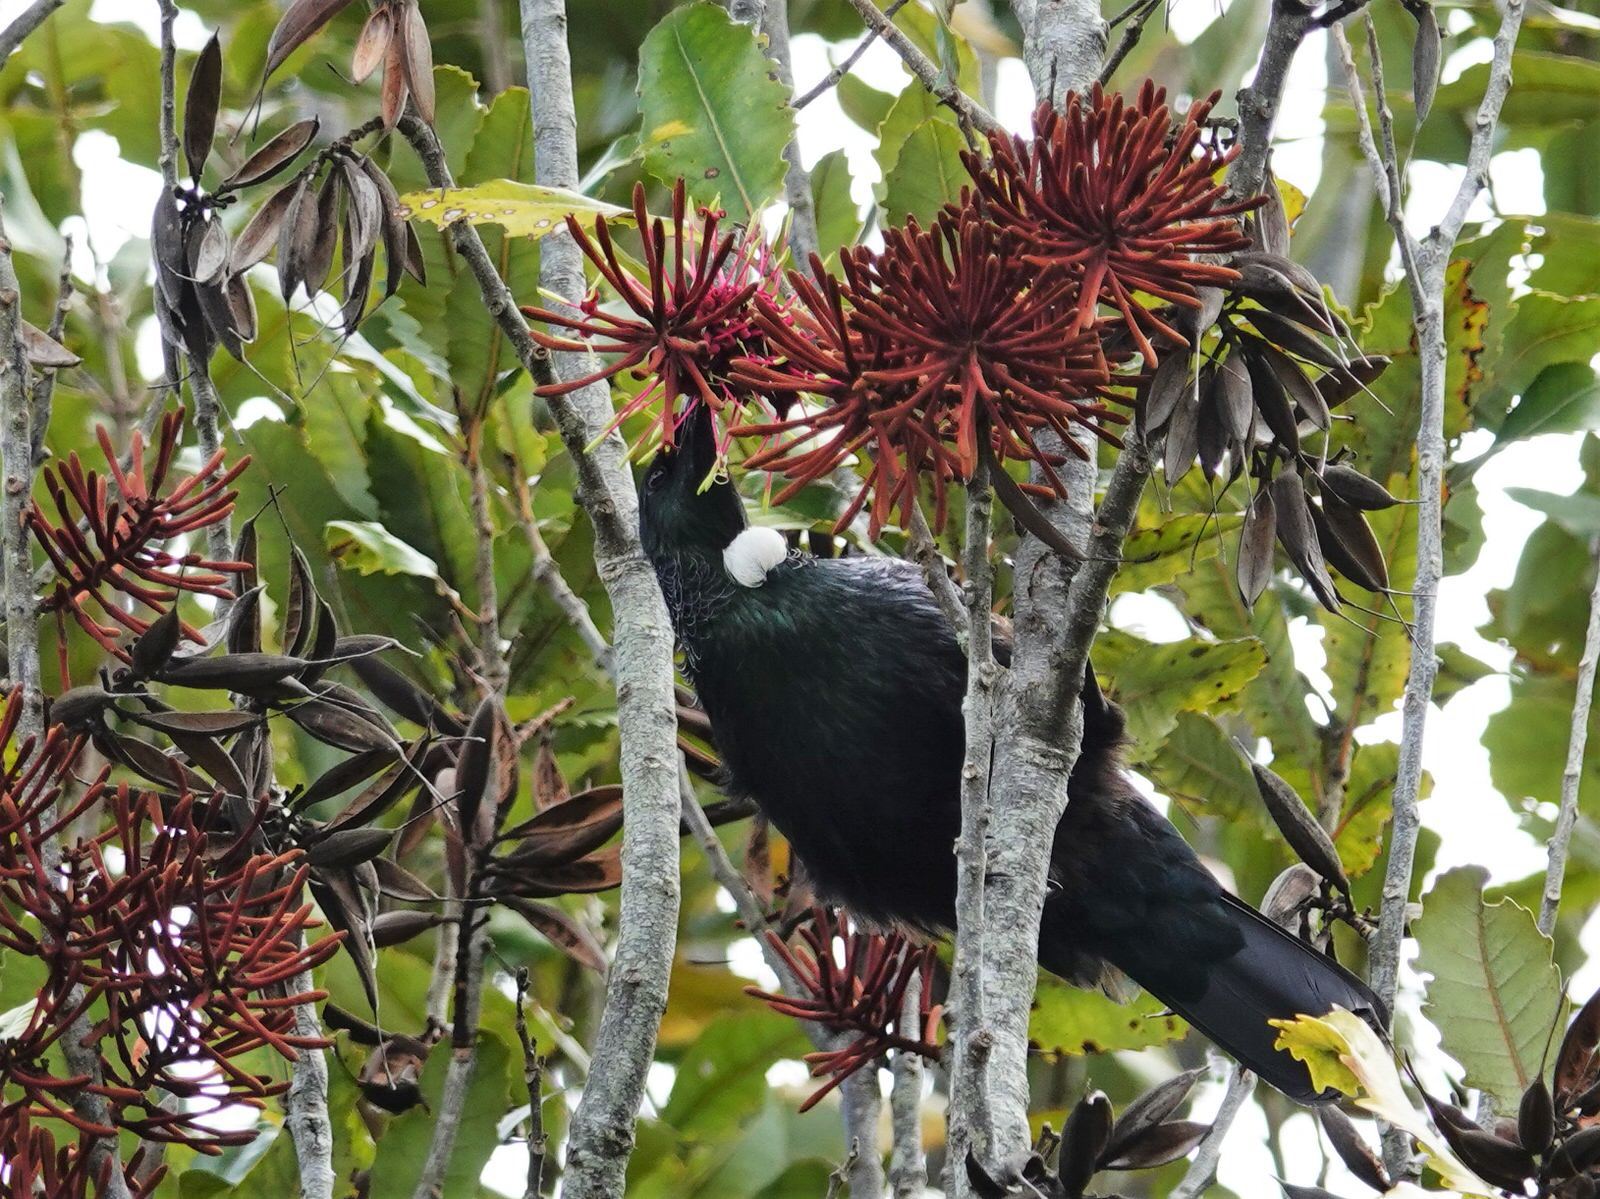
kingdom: Animalia
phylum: Chordata
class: Aves
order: Passeriformes
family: Meliphagidae
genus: Prosthemadera
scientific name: Prosthemadera novaeseelandiae
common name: Tui
